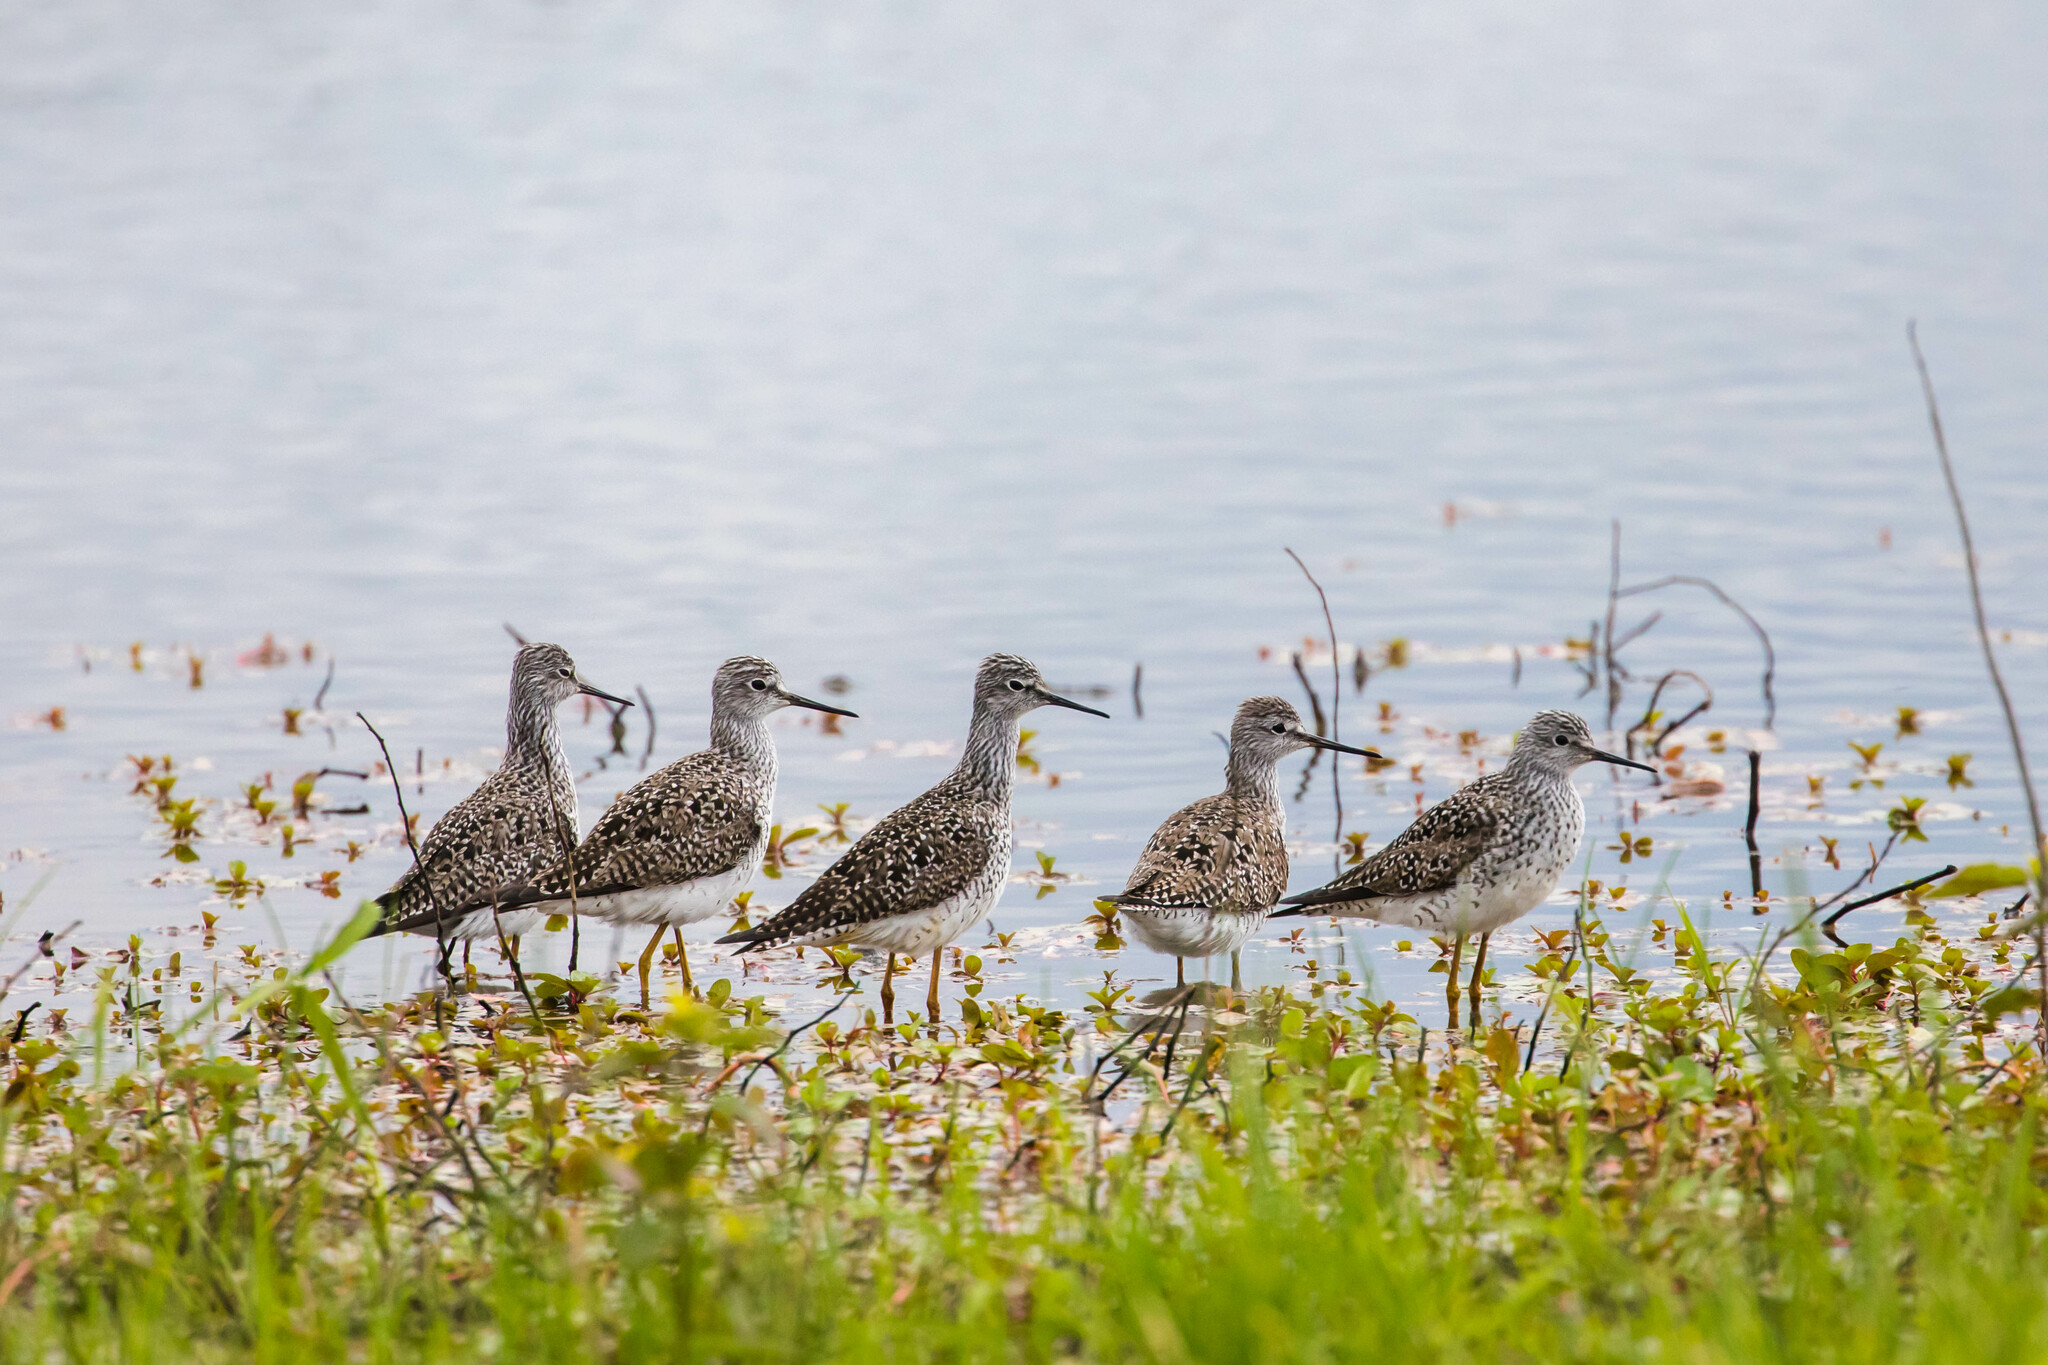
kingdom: Animalia
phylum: Chordata
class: Aves
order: Charadriiformes
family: Scolopacidae
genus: Tringa
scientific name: Tringa flavipes
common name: Lesser yellowlegs
